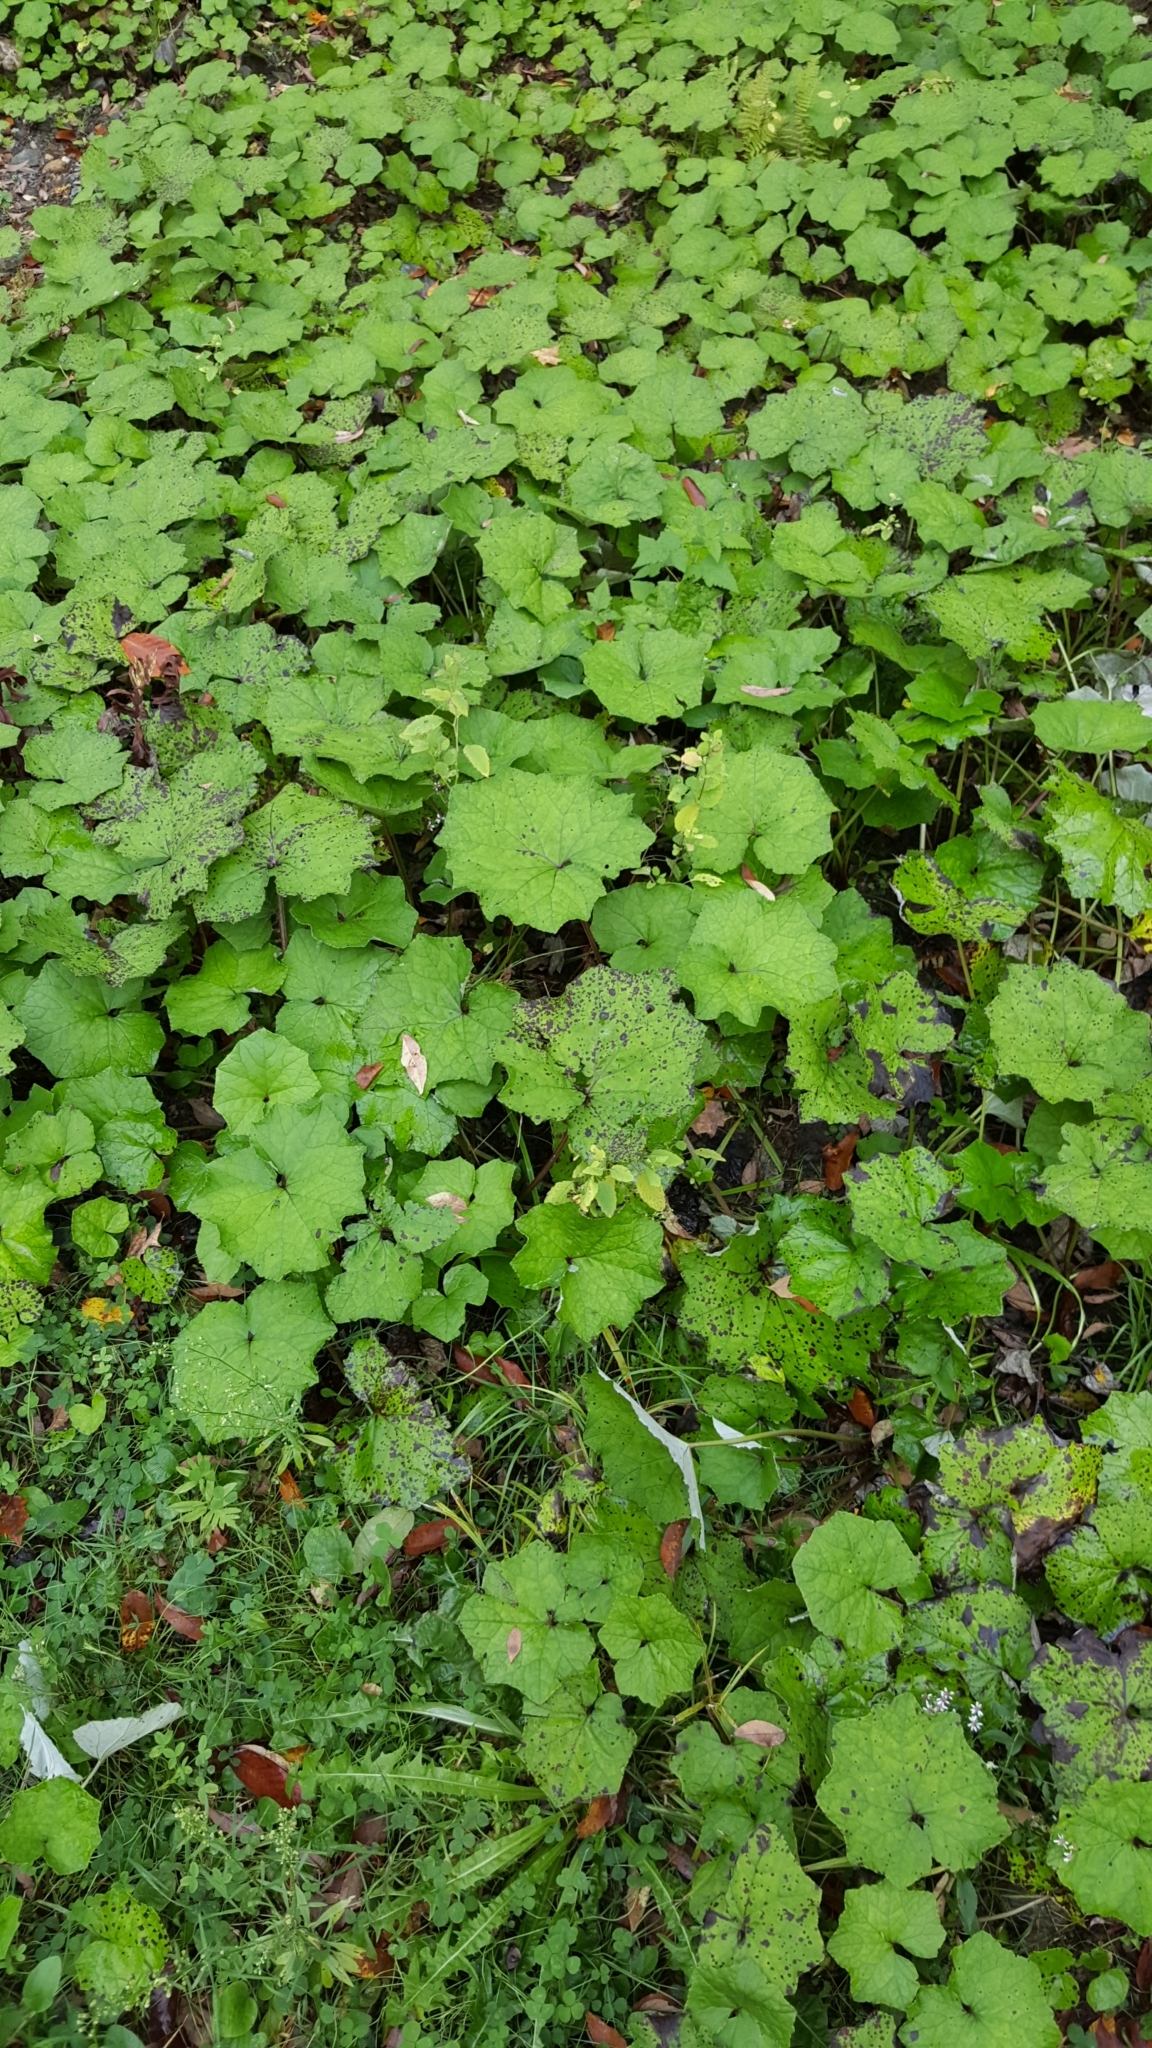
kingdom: Plantae
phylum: Tracheophyta
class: Magnoliopsida
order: Asterales
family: Asteraceae
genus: Tussilago
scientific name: Tussilago farfara
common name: Coltsfoot
